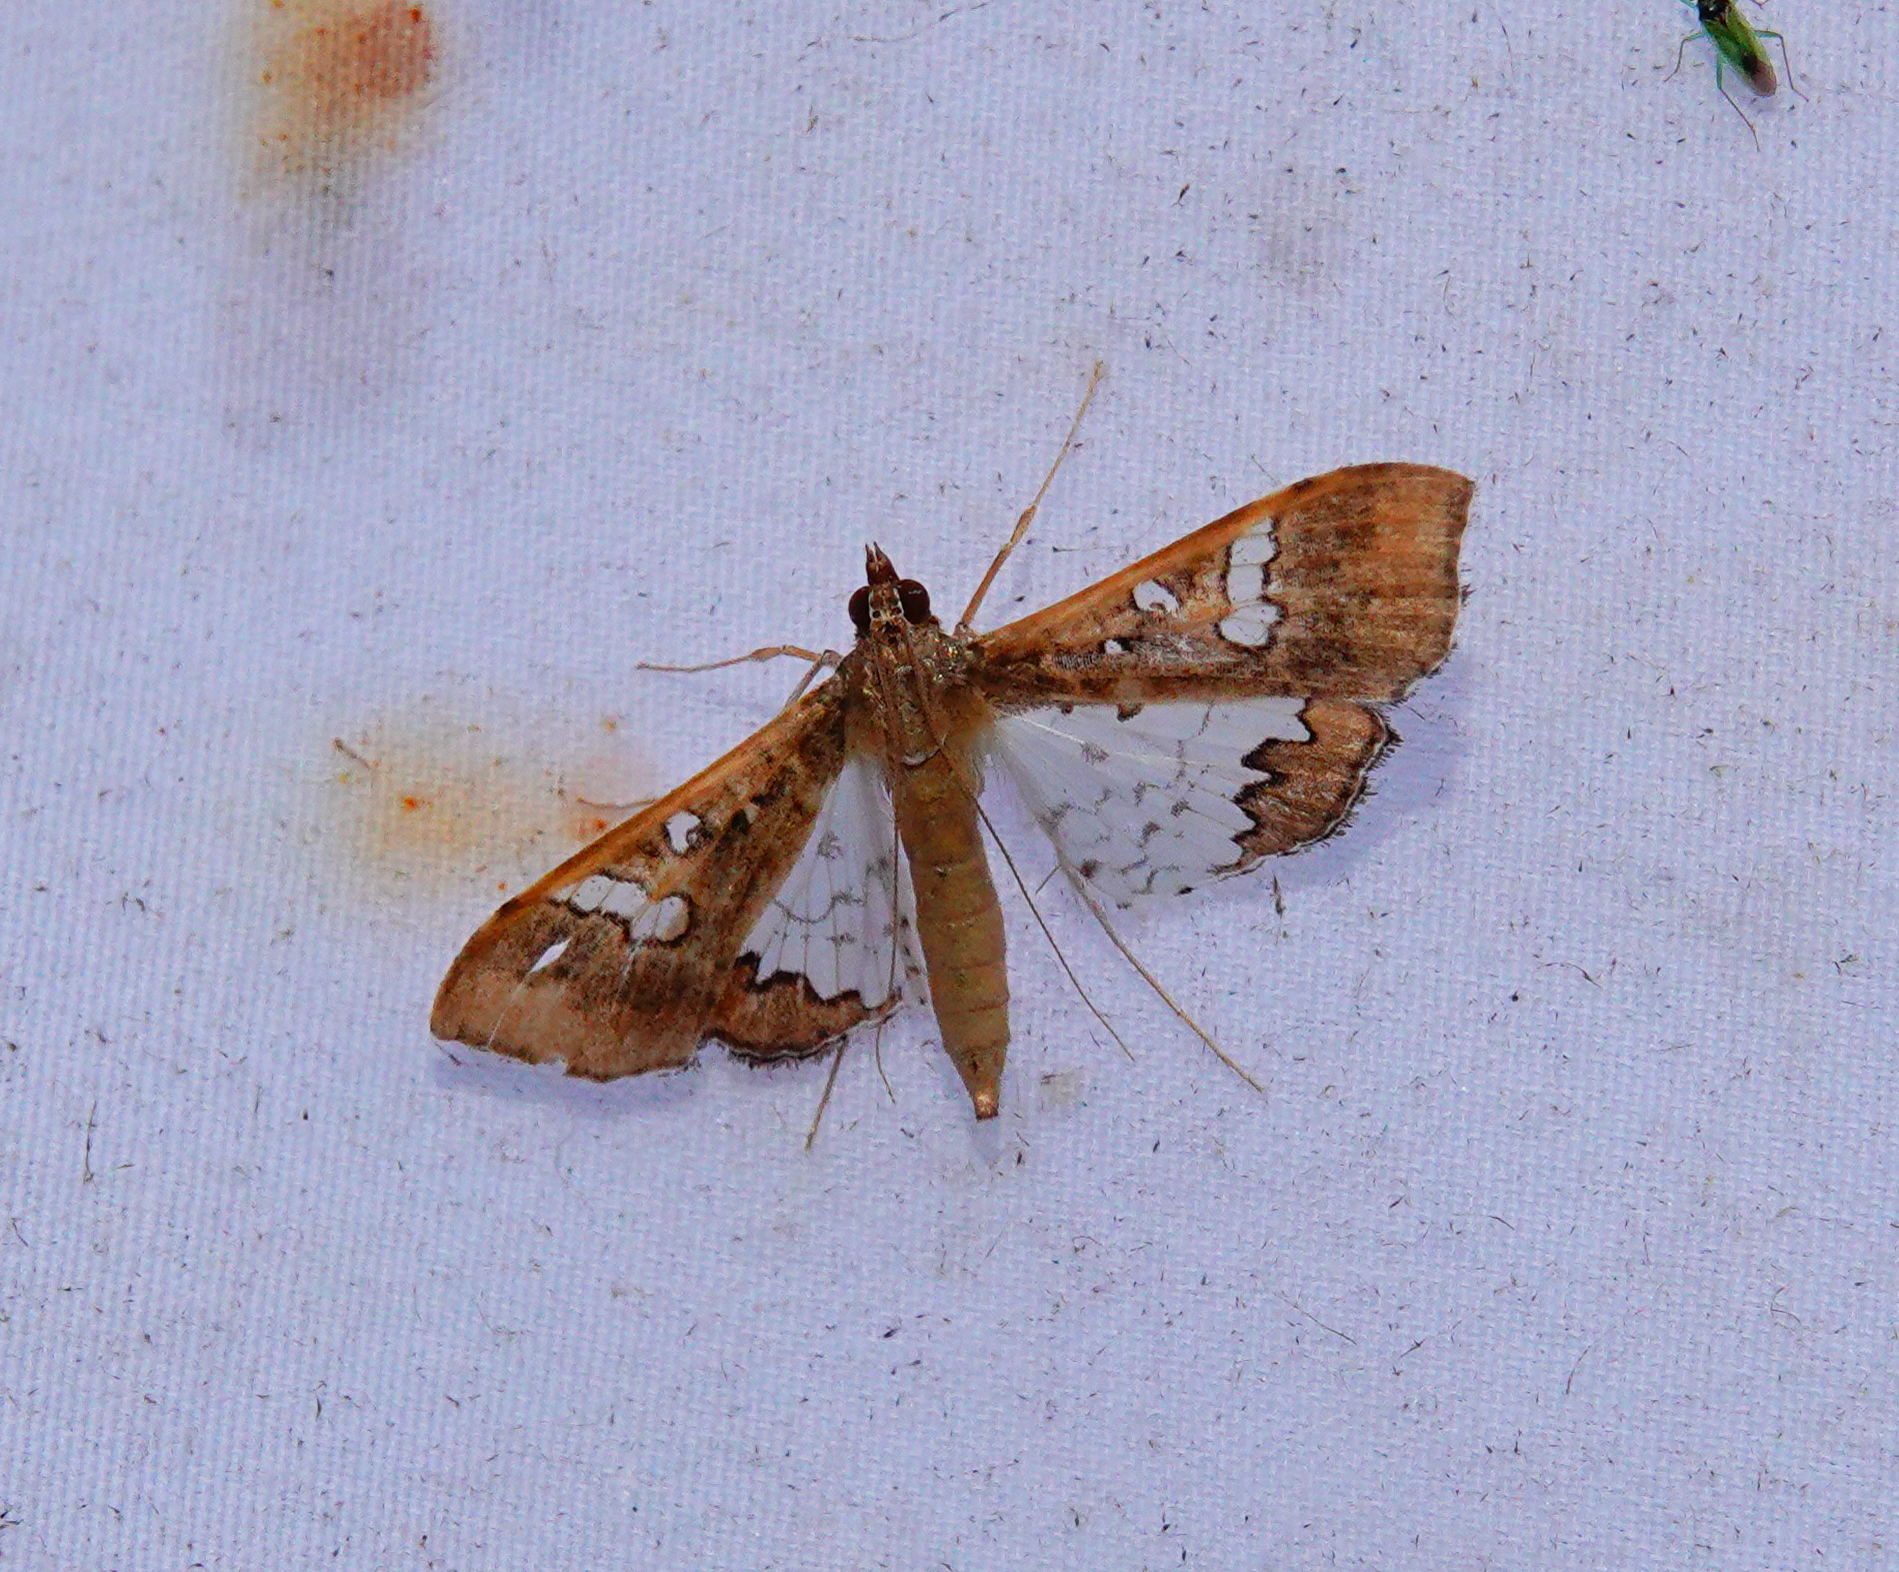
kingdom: Animalia
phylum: Arthropoda
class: Insecta
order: Lepidoptera
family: Crambidae
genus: Maruca
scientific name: Maruca vitrata
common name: Maruca pod borer
